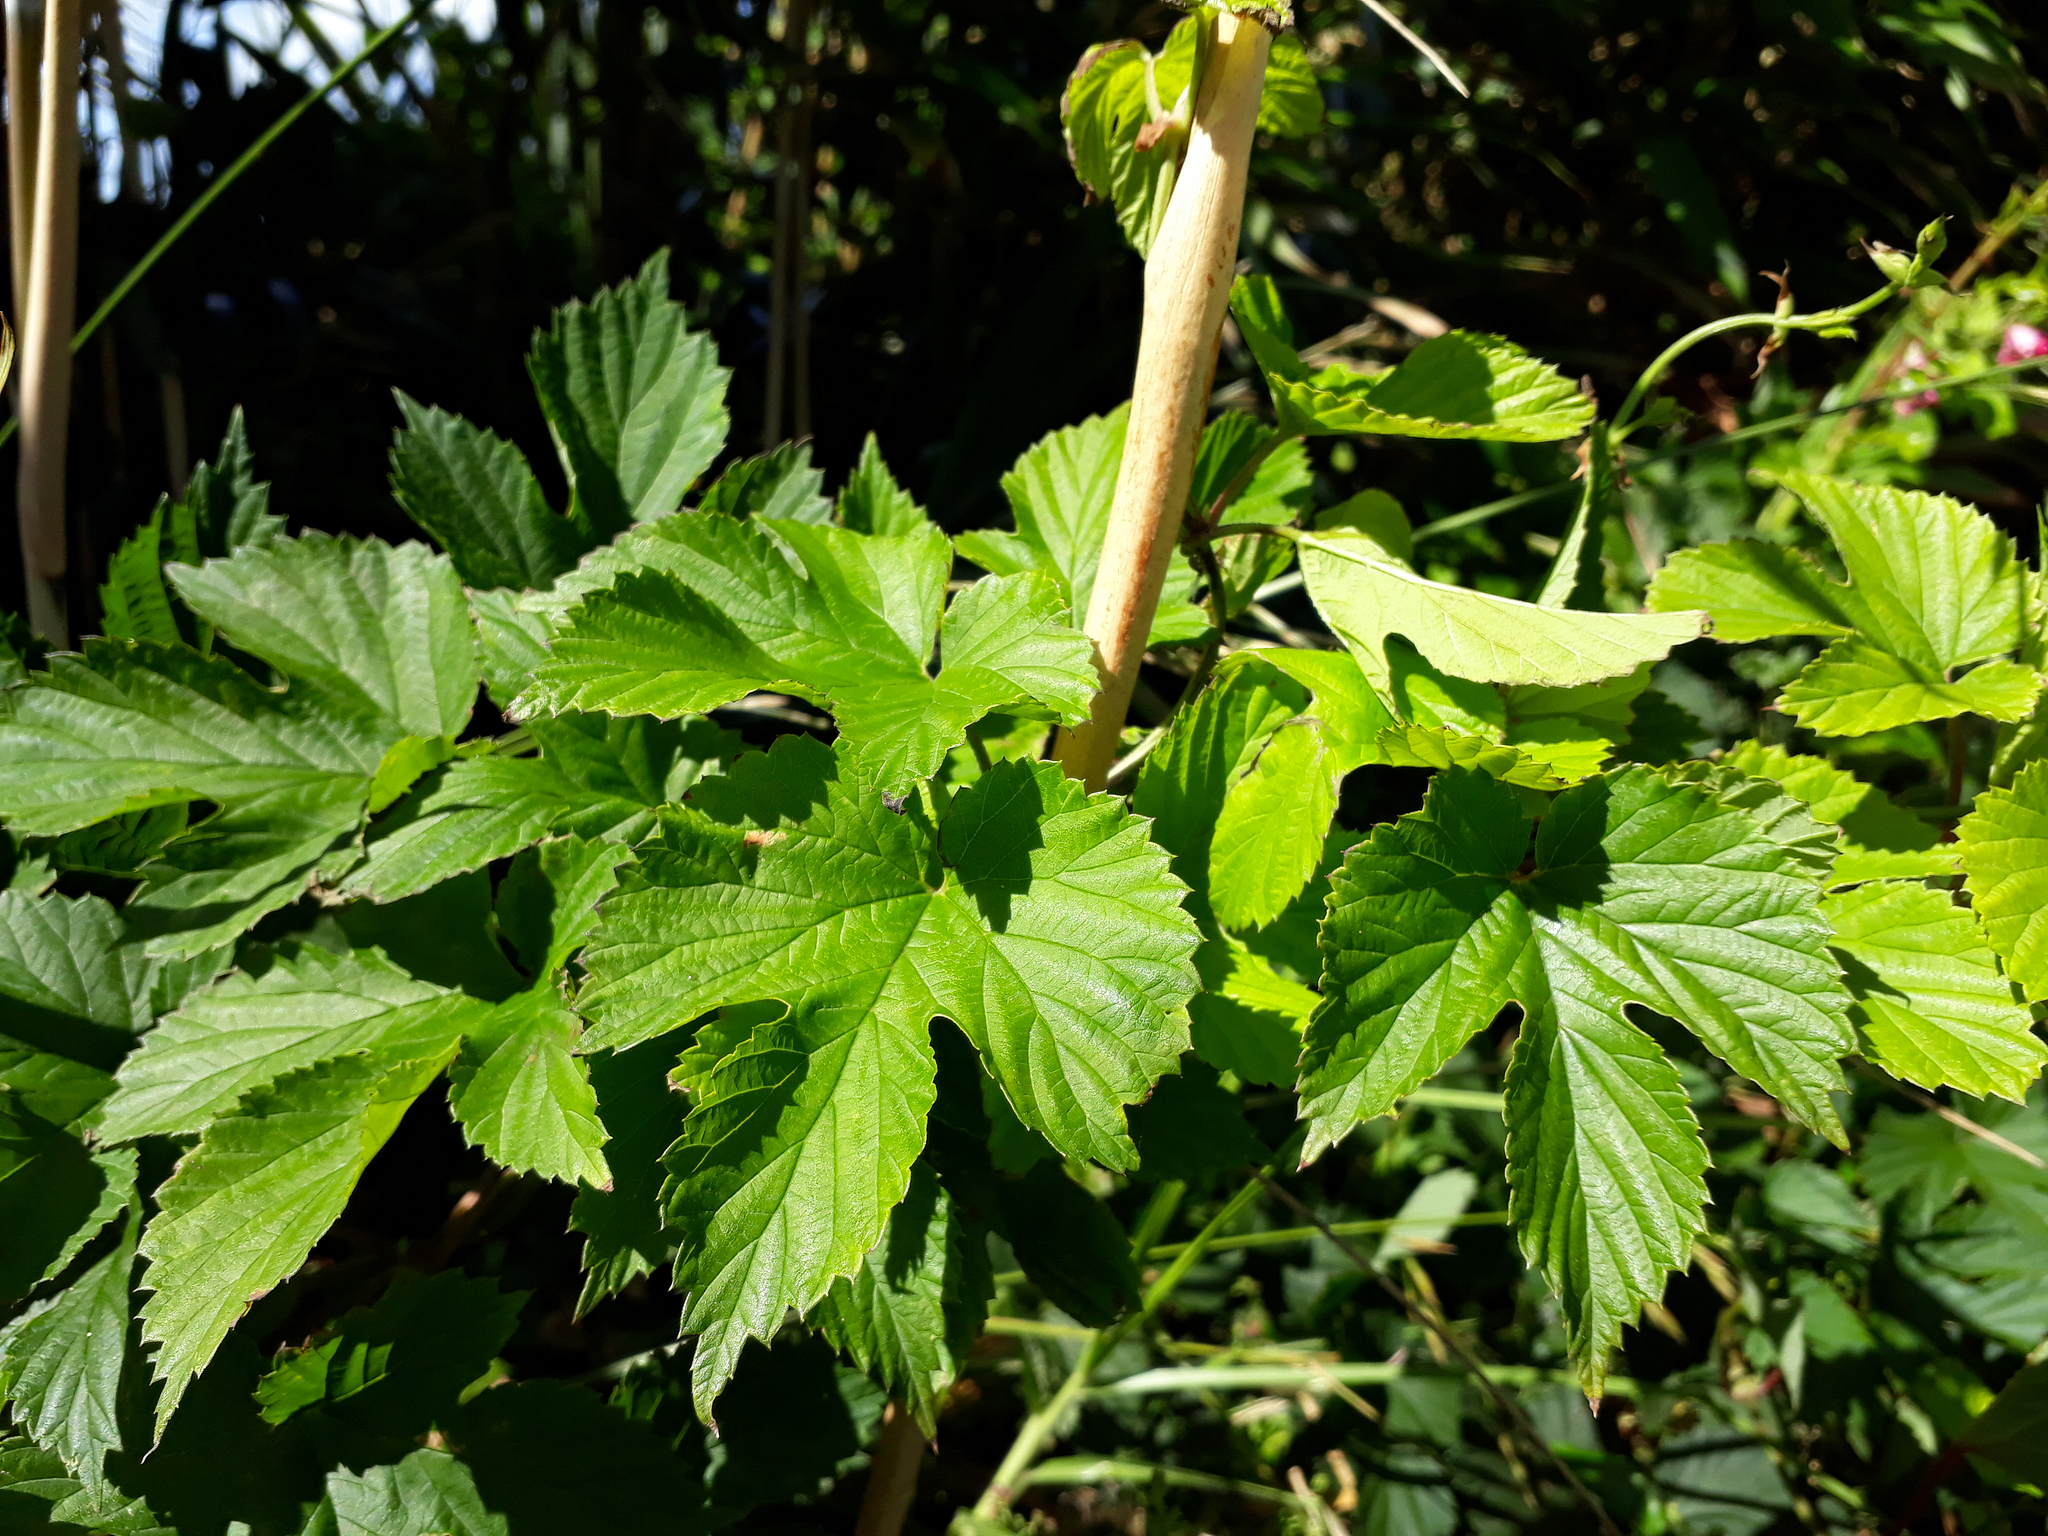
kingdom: Plantae
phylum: Tracheophyta
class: Magnoliopsida
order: Rosales
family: Cannabaceae
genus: Humulus
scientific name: Humulus lupulus
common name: Hop
